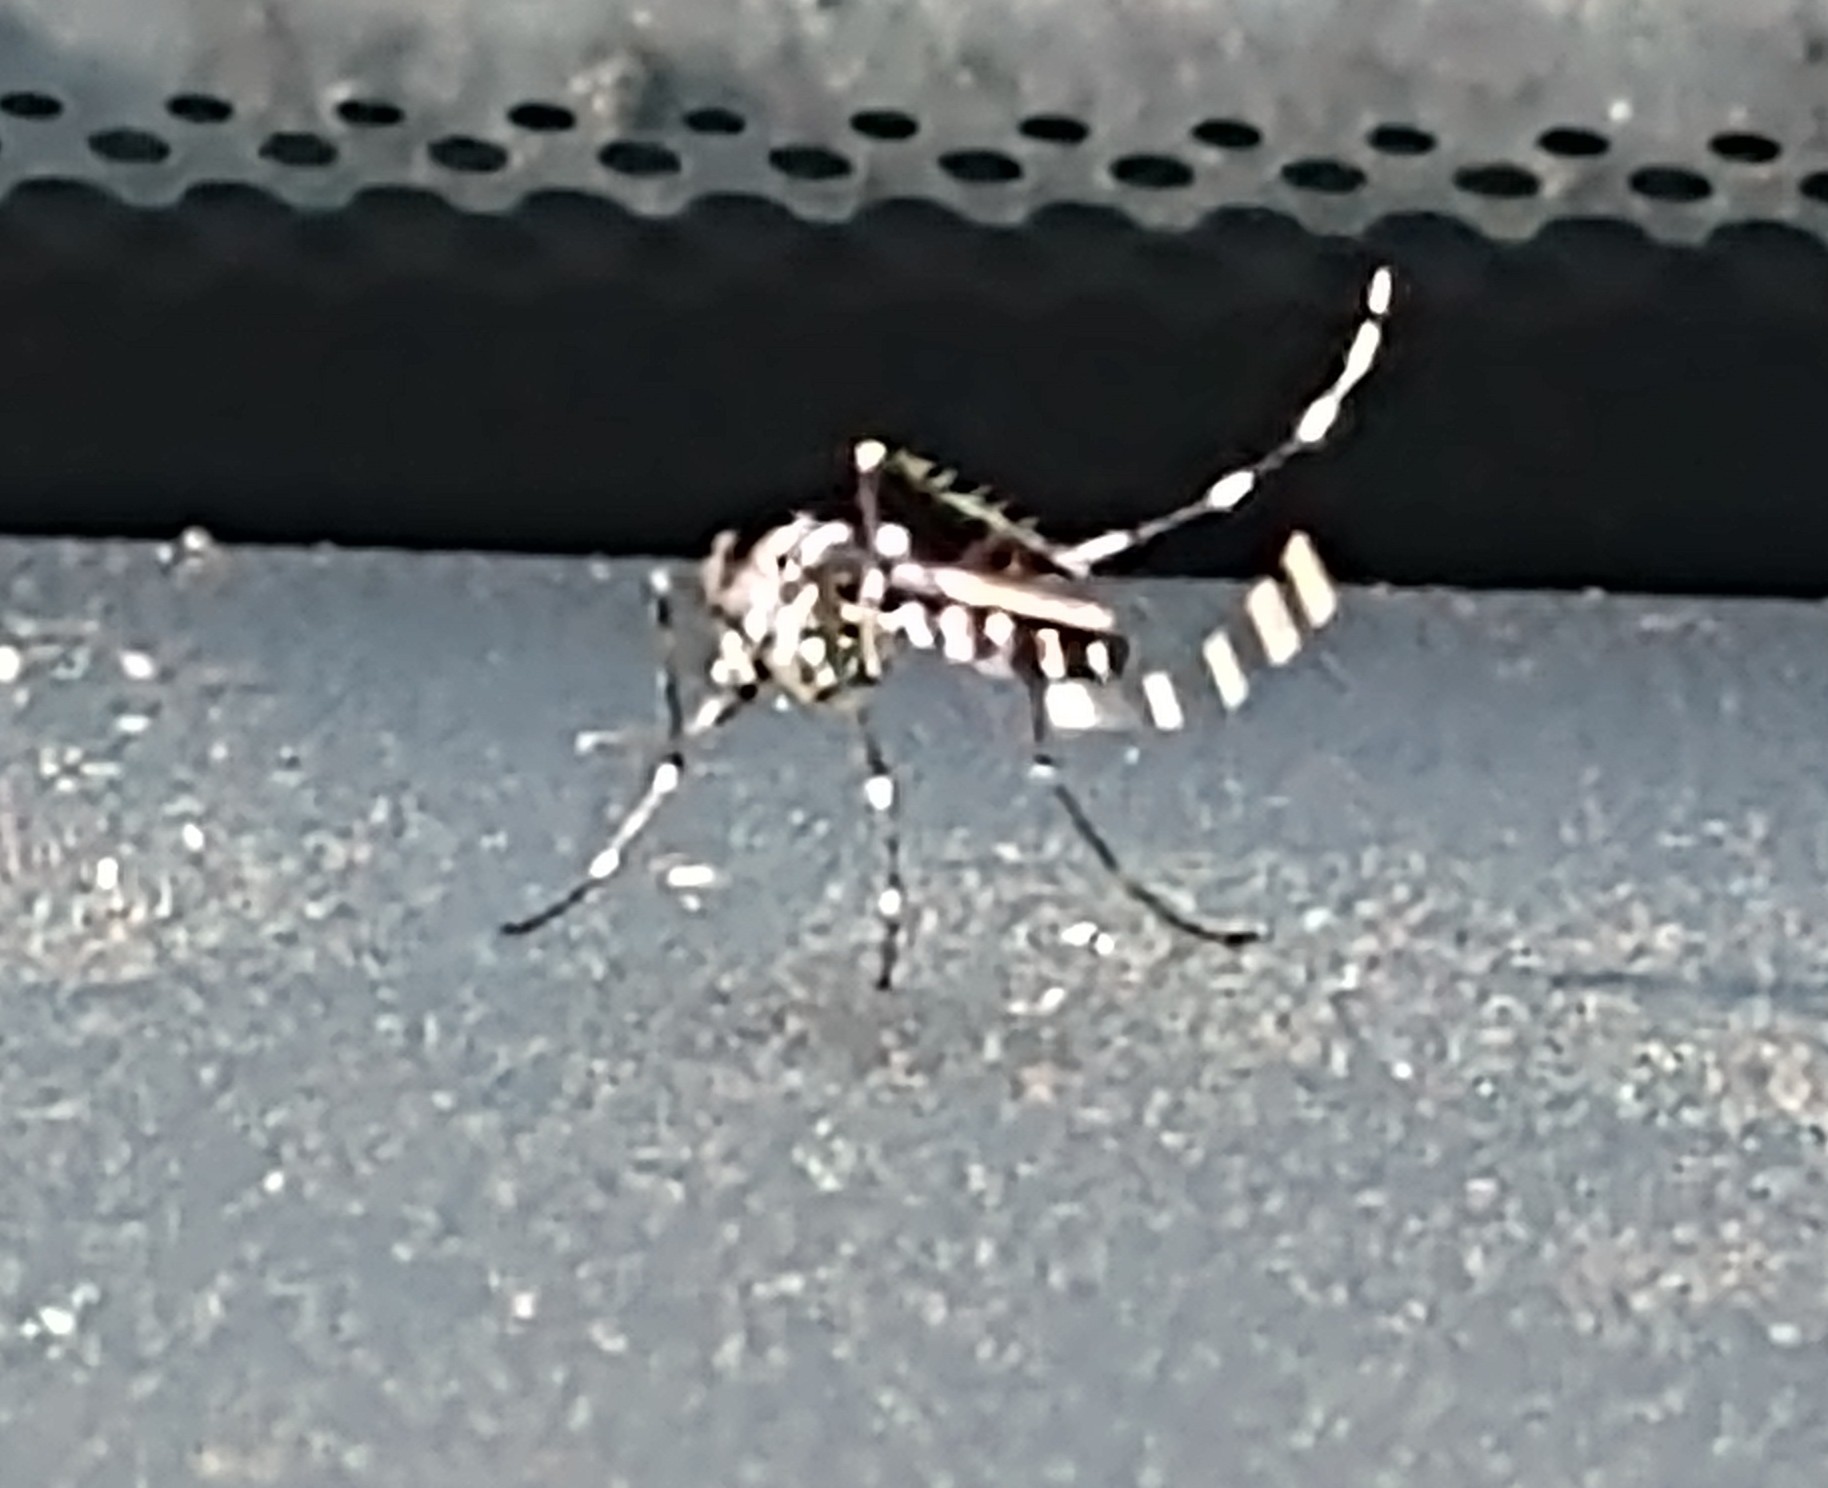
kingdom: Animalia
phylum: Arthropoda
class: Insecta
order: Diptera
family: Culicidae
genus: Aedes
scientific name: Aedes albopictus
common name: Tiger mosquito
